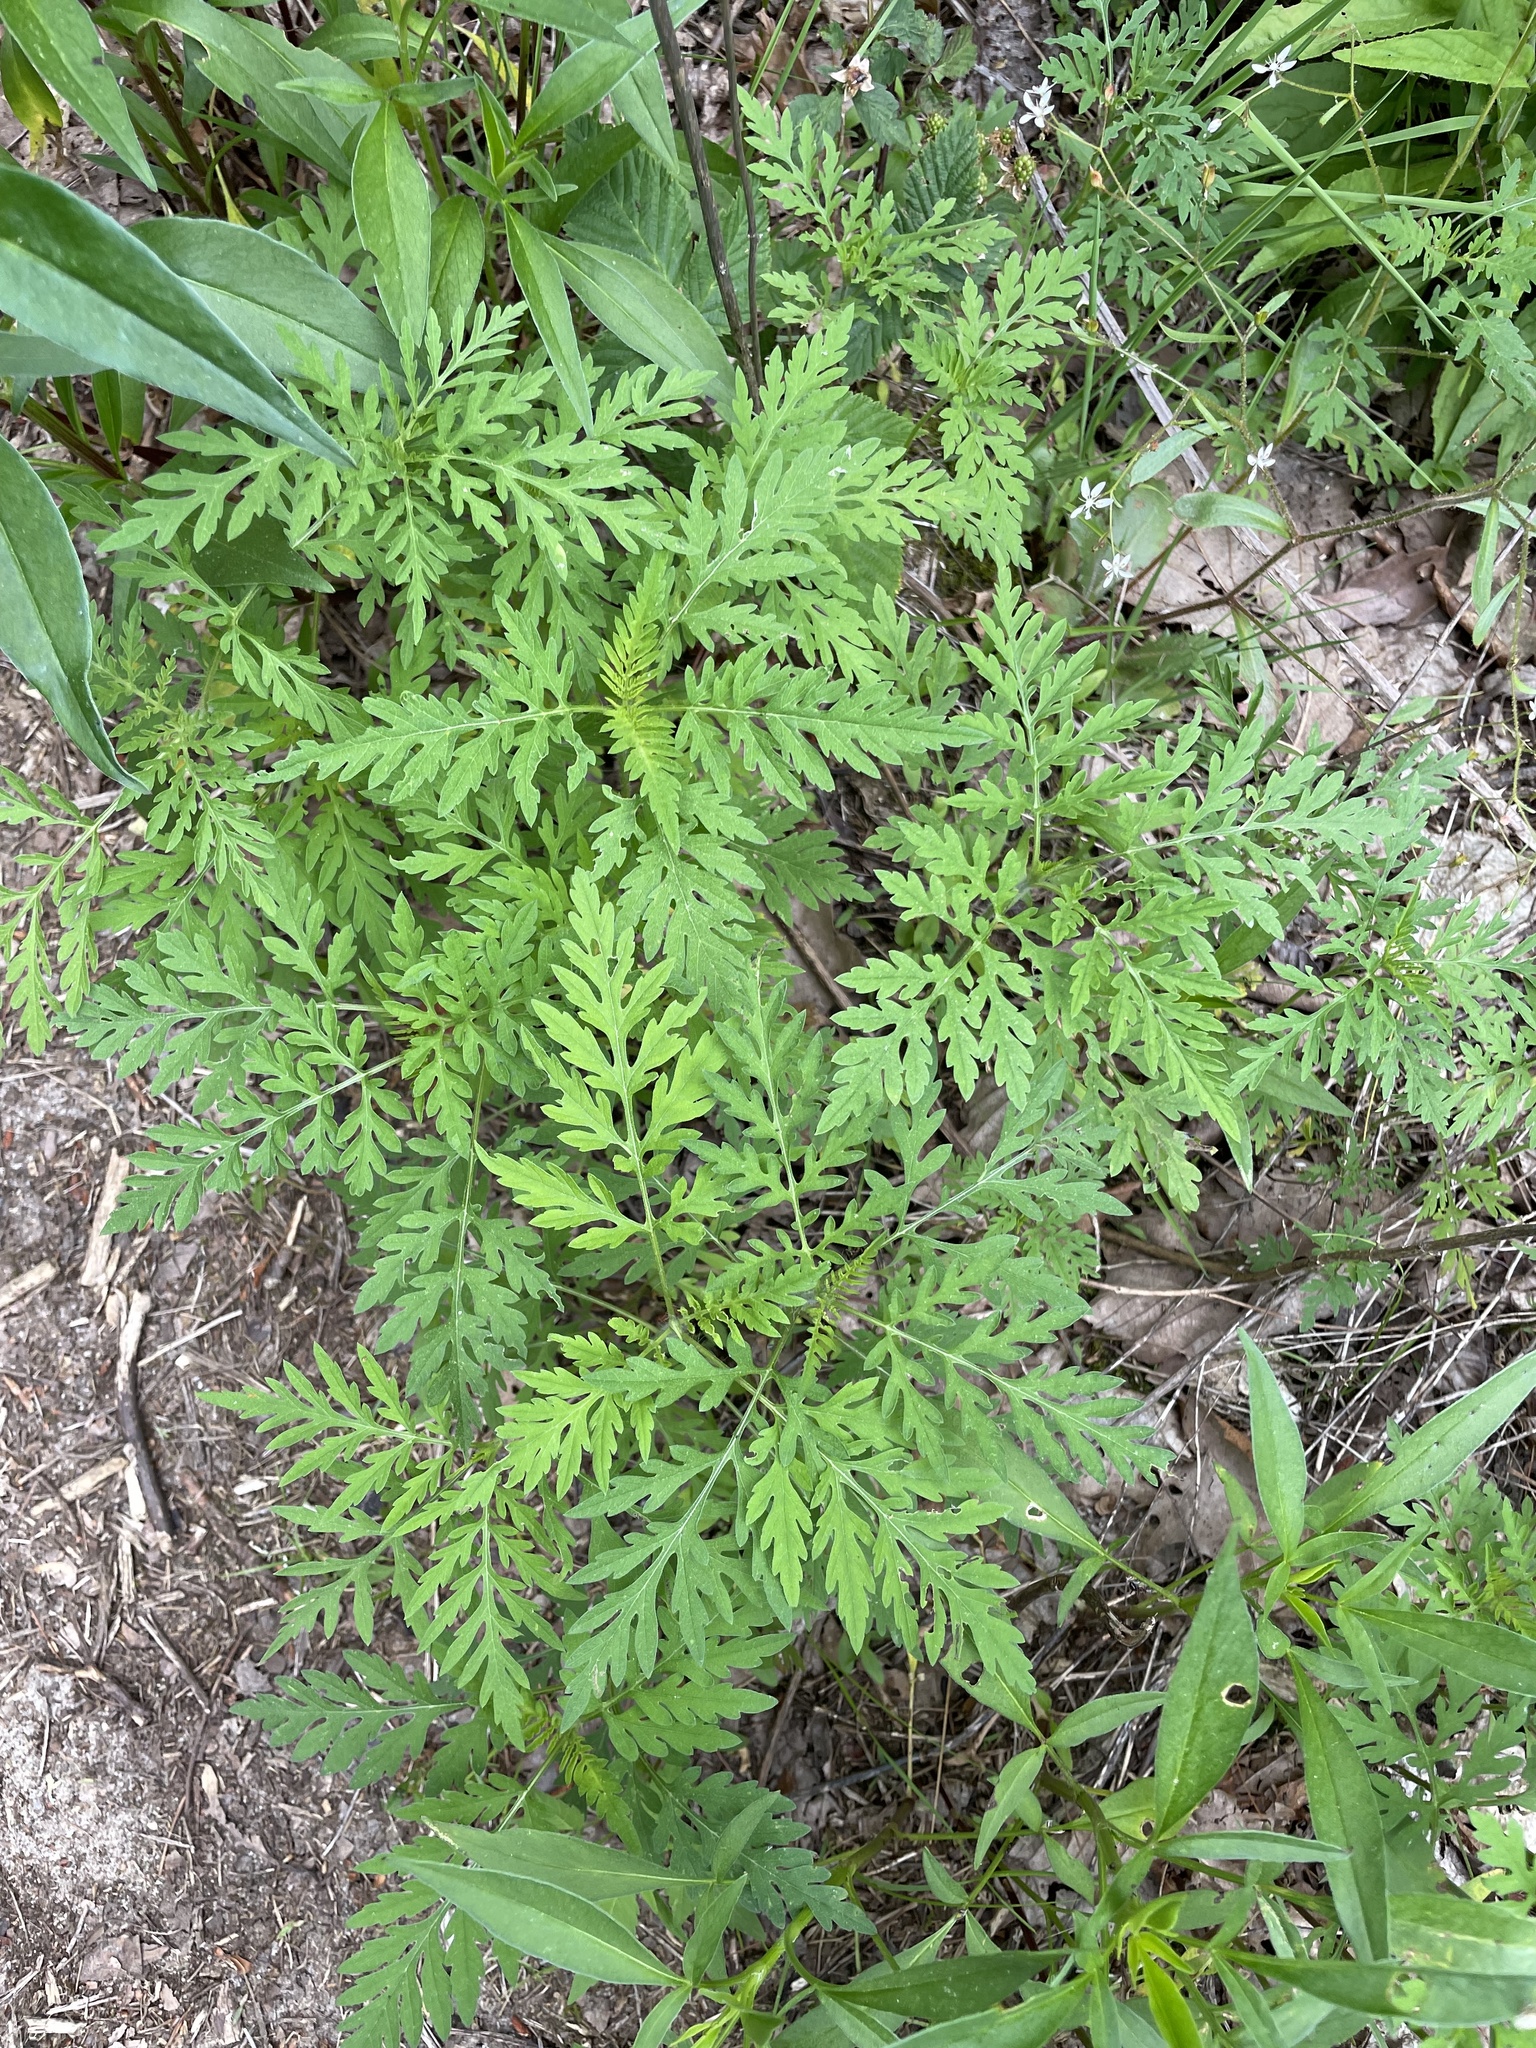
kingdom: Plantae
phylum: Tracheophyta
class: Magnoliopsida
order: Asterales
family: Asteraceae
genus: Ambrosia
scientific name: Ambrosia artemisiifolia
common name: Annual ragweed
